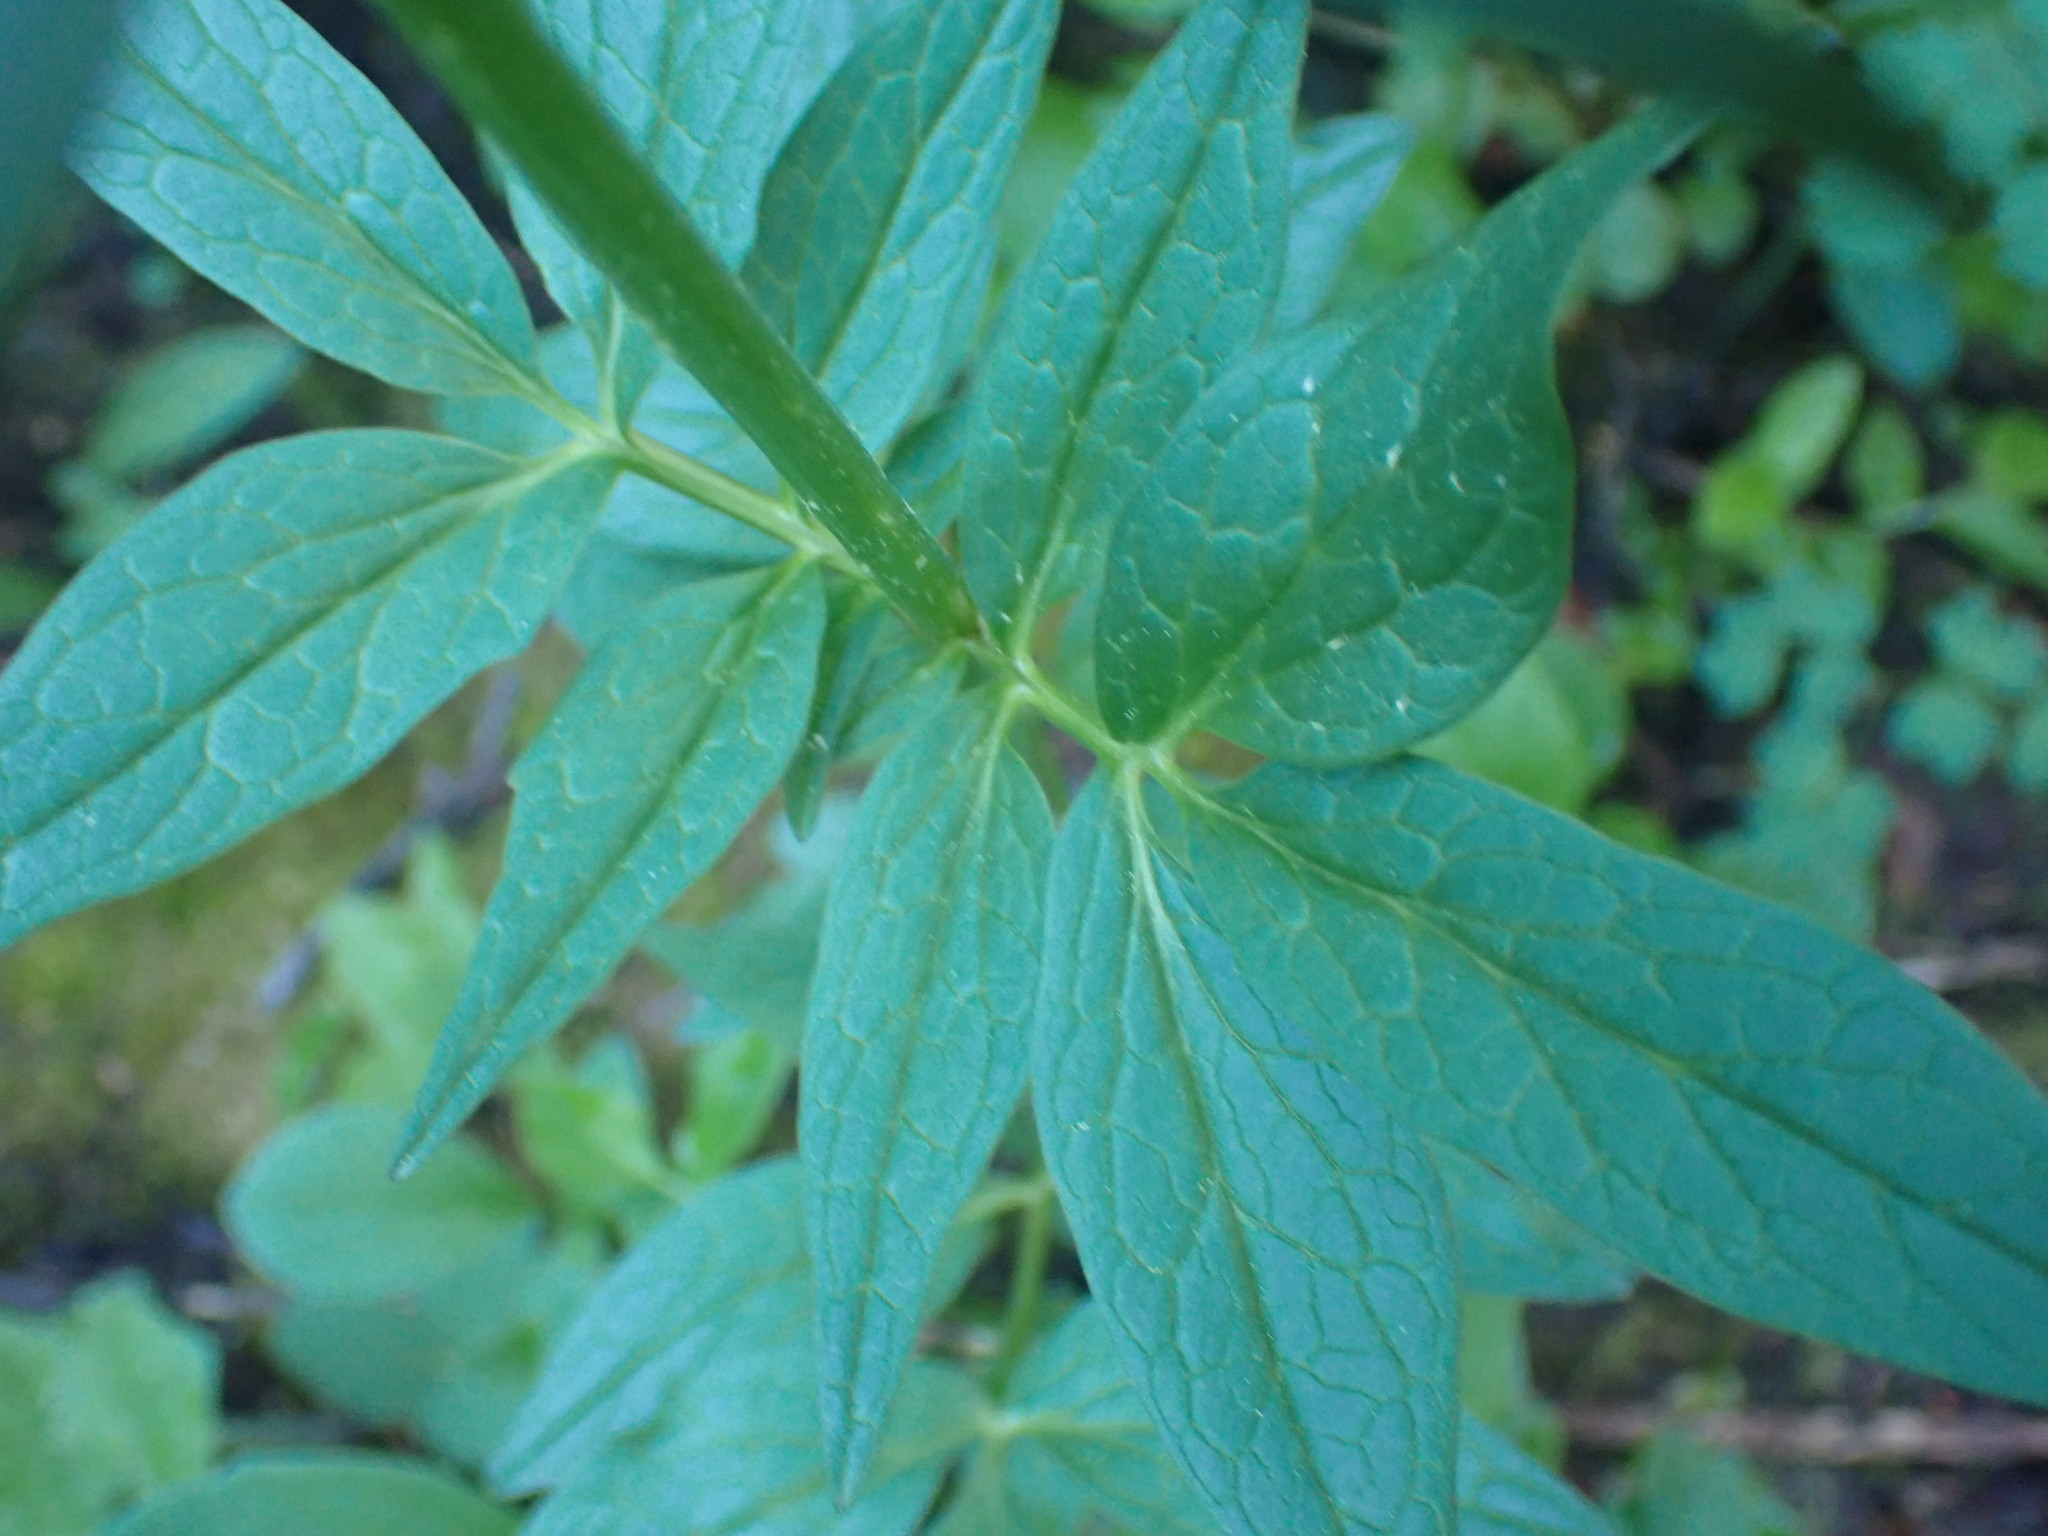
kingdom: Plantae
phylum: Tracheophyta
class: Magnoliopsida
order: Dipsacales
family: Caprifoliaceae
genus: Valeriana
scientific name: Valeriana sitchensis
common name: Pacific valerian
